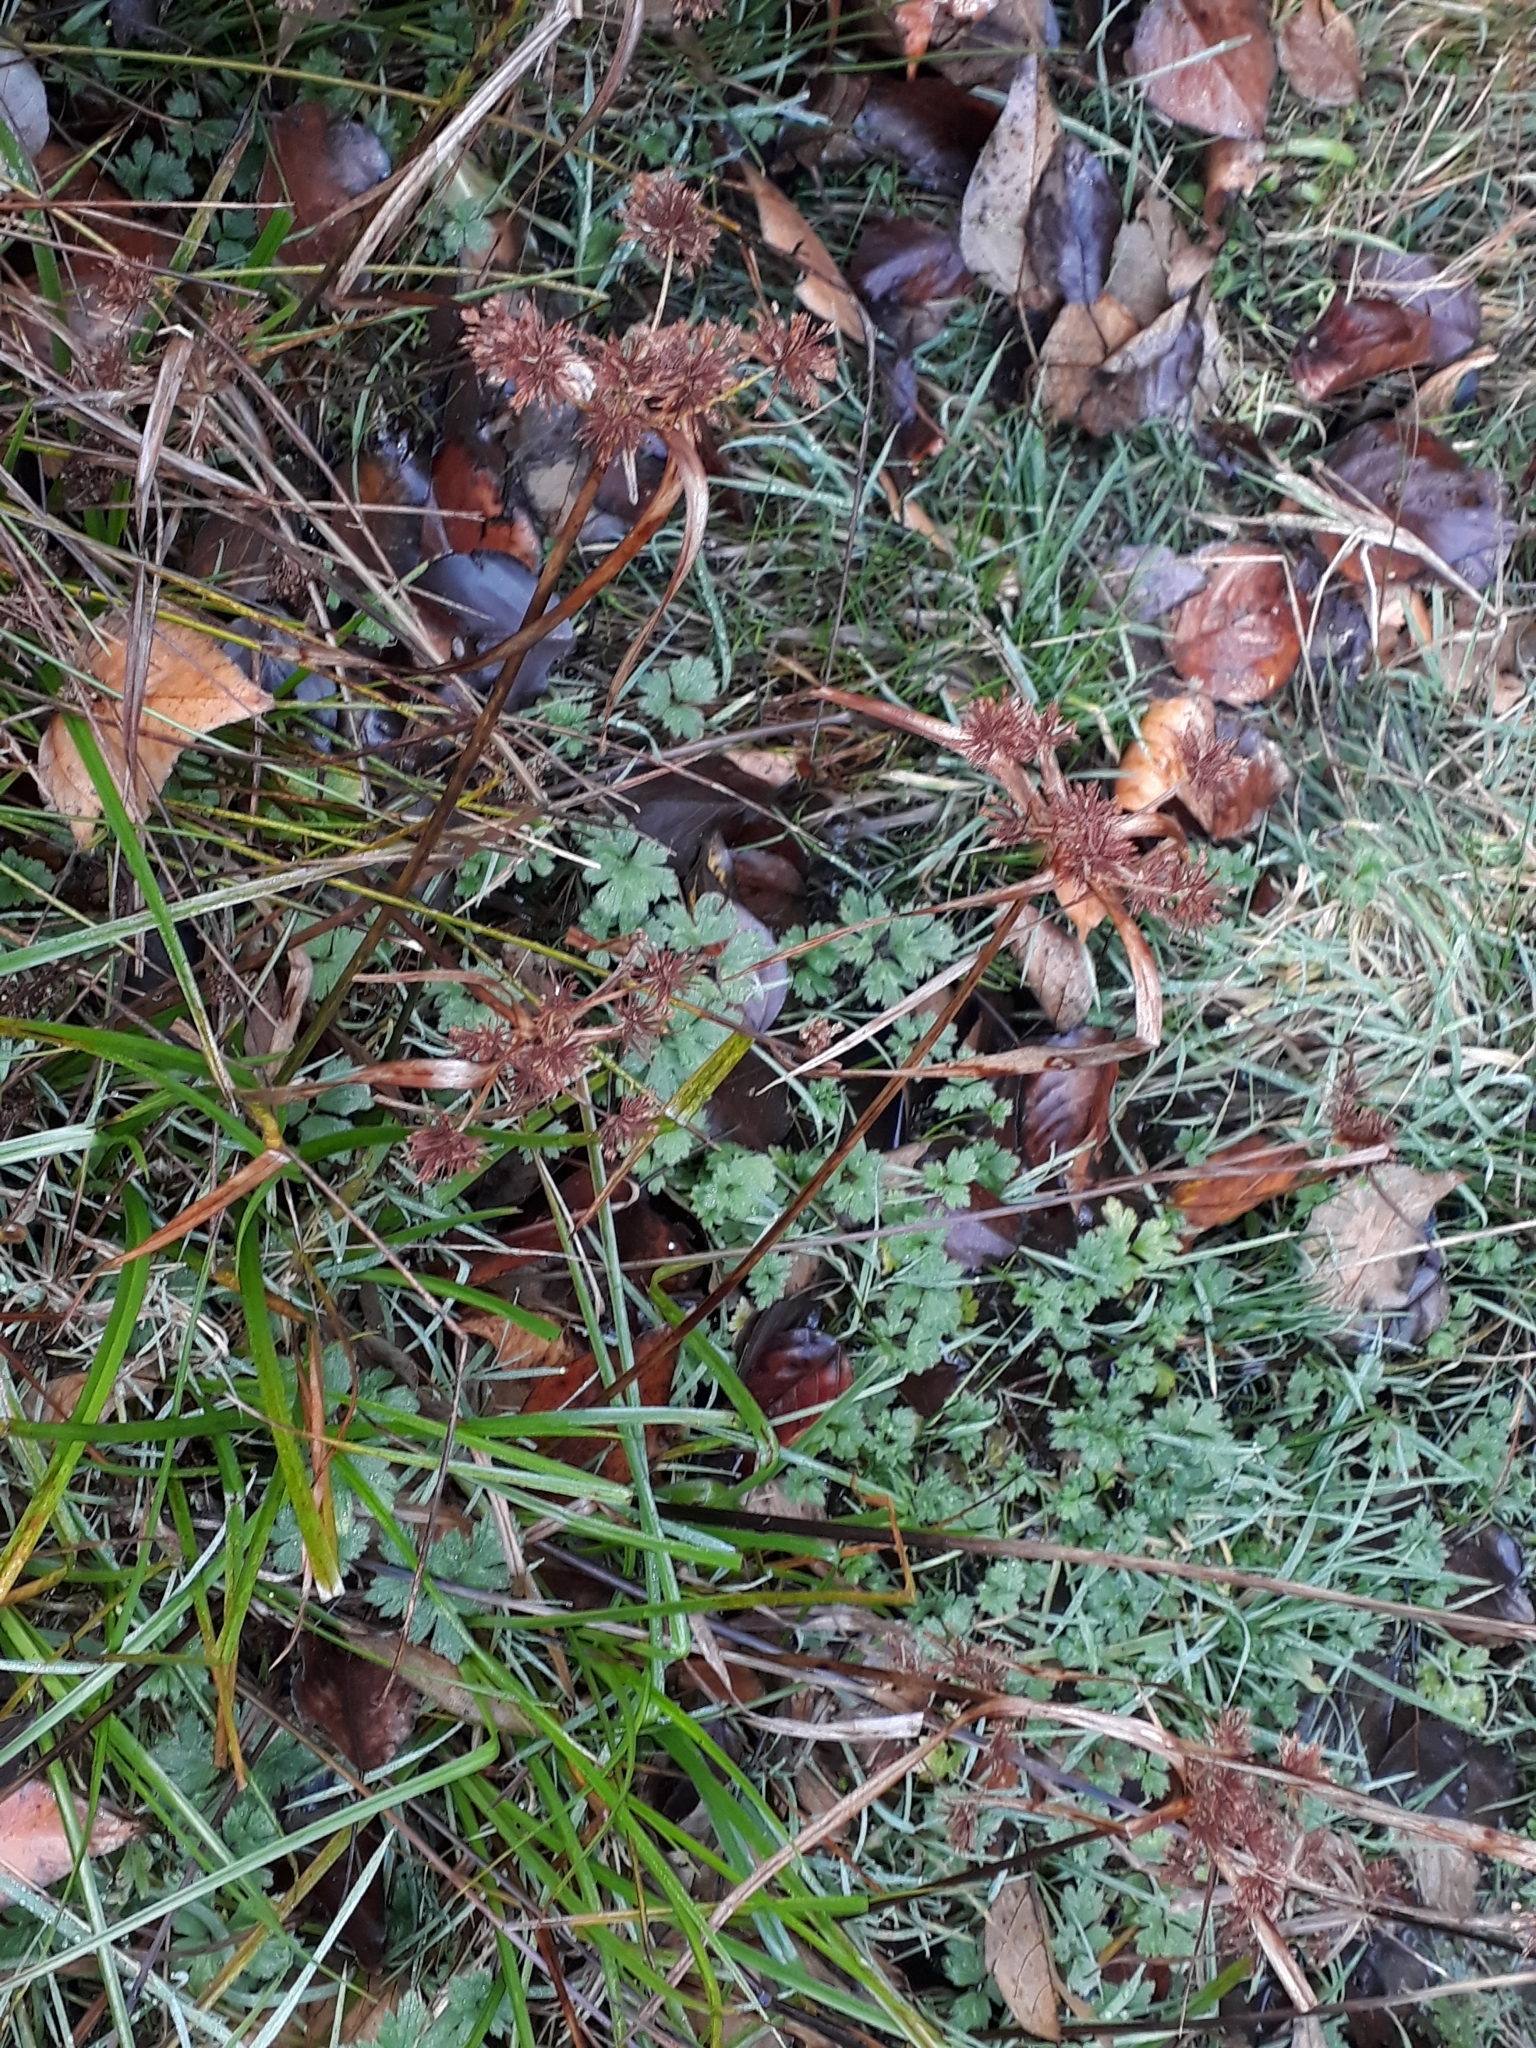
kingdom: Plantae
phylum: Tracheophyta
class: Liliopsida
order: Poales
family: Cyperaceae
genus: Cyperus
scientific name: Cyperus eragrostis
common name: Tall flatsedge
